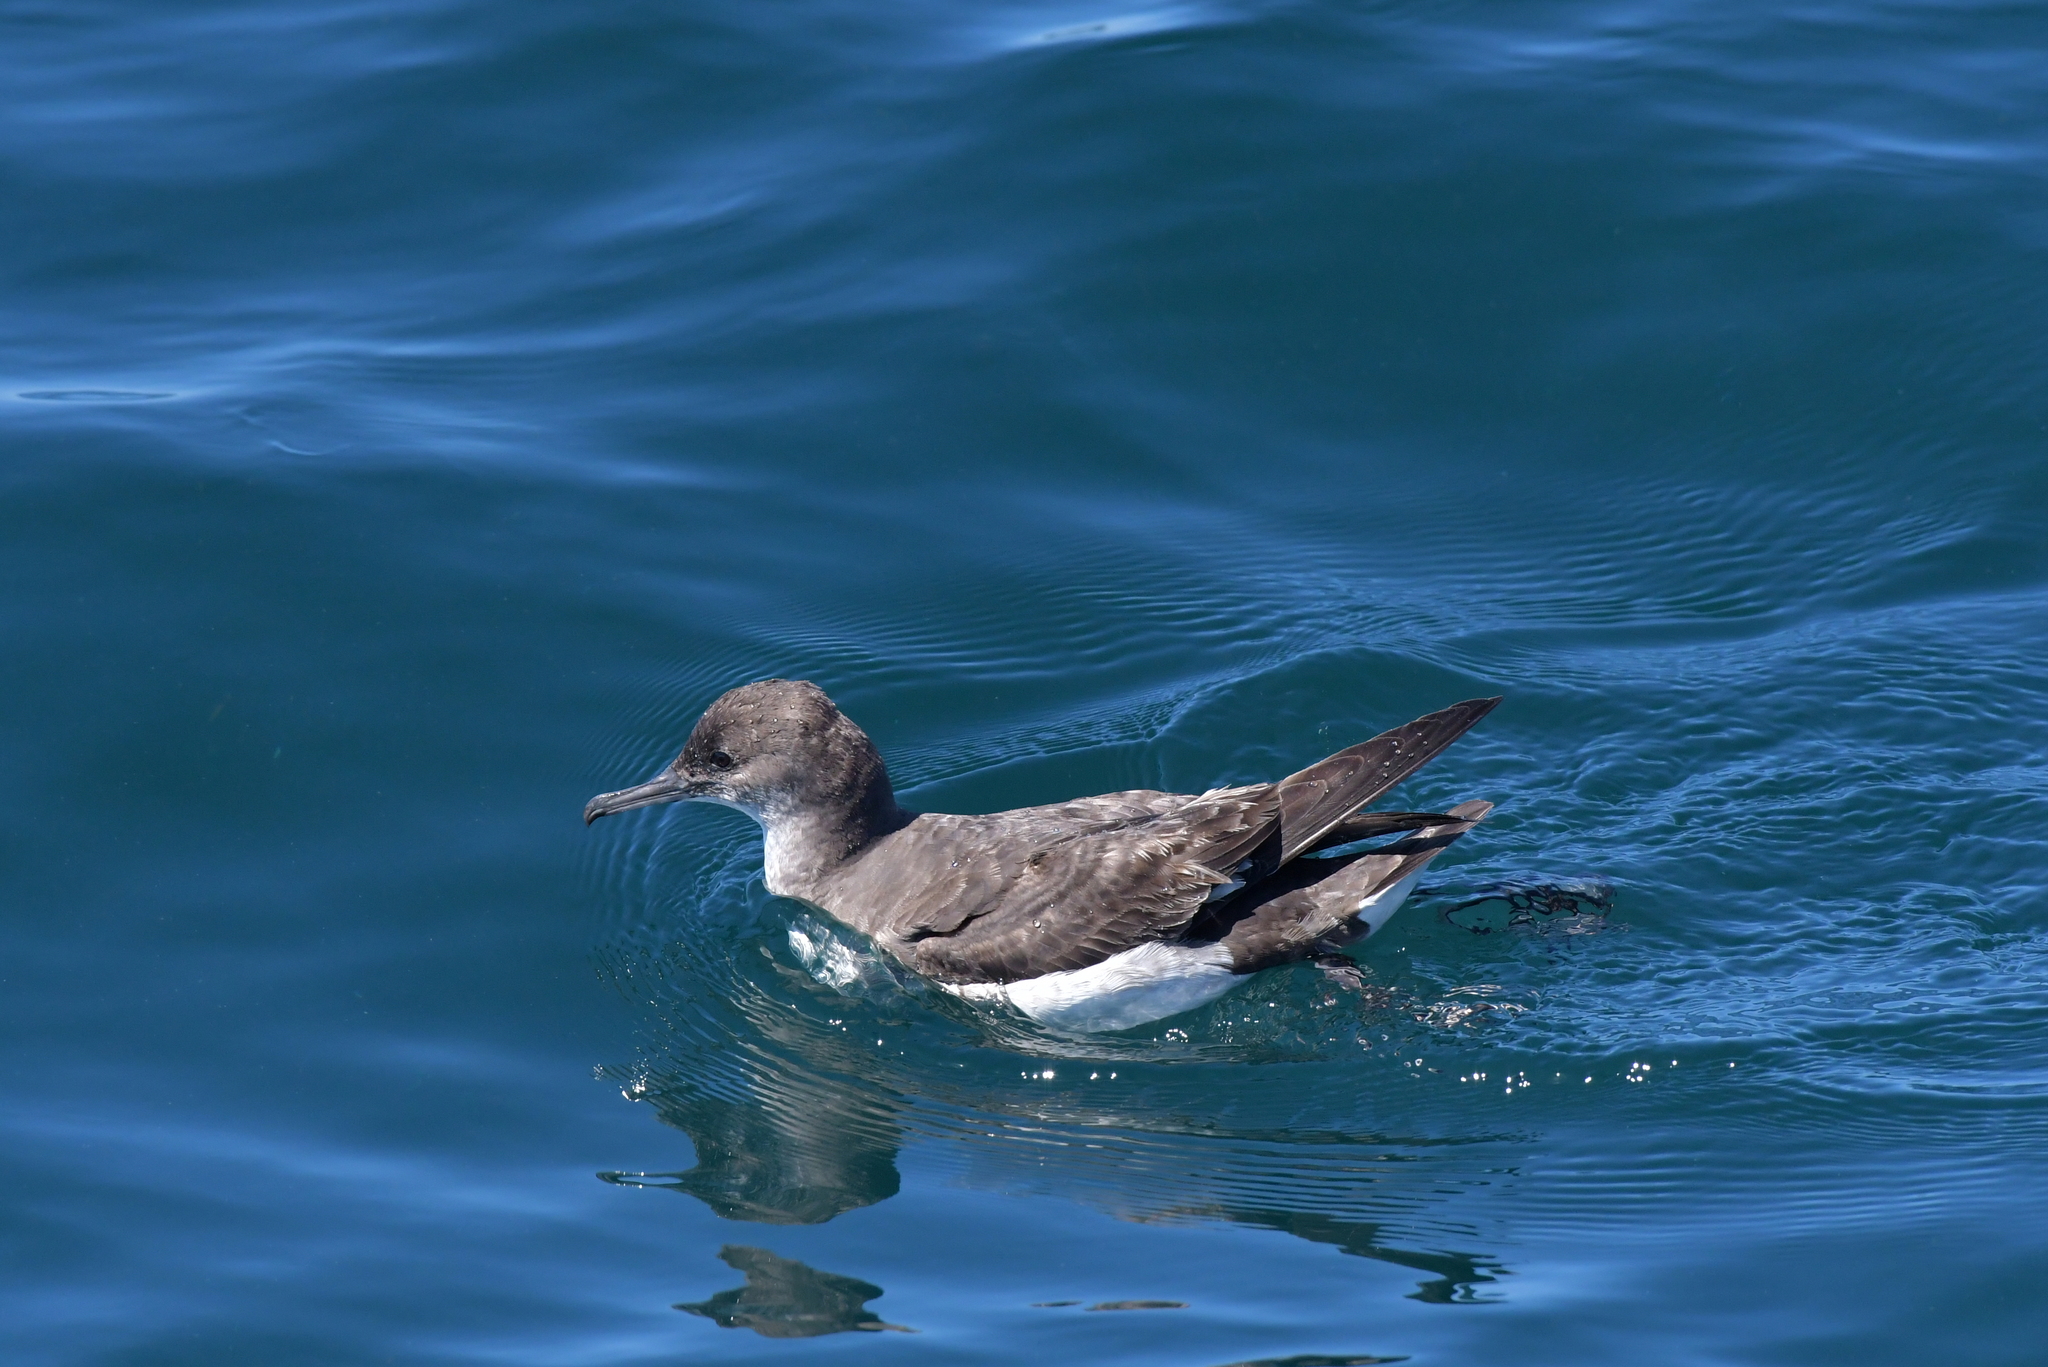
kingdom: Animalia
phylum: Chordata
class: Aves
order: Procellariiformes
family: Procellariidae
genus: Puffinus
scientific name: Puffinus gavia
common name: Fluttering shearwater
